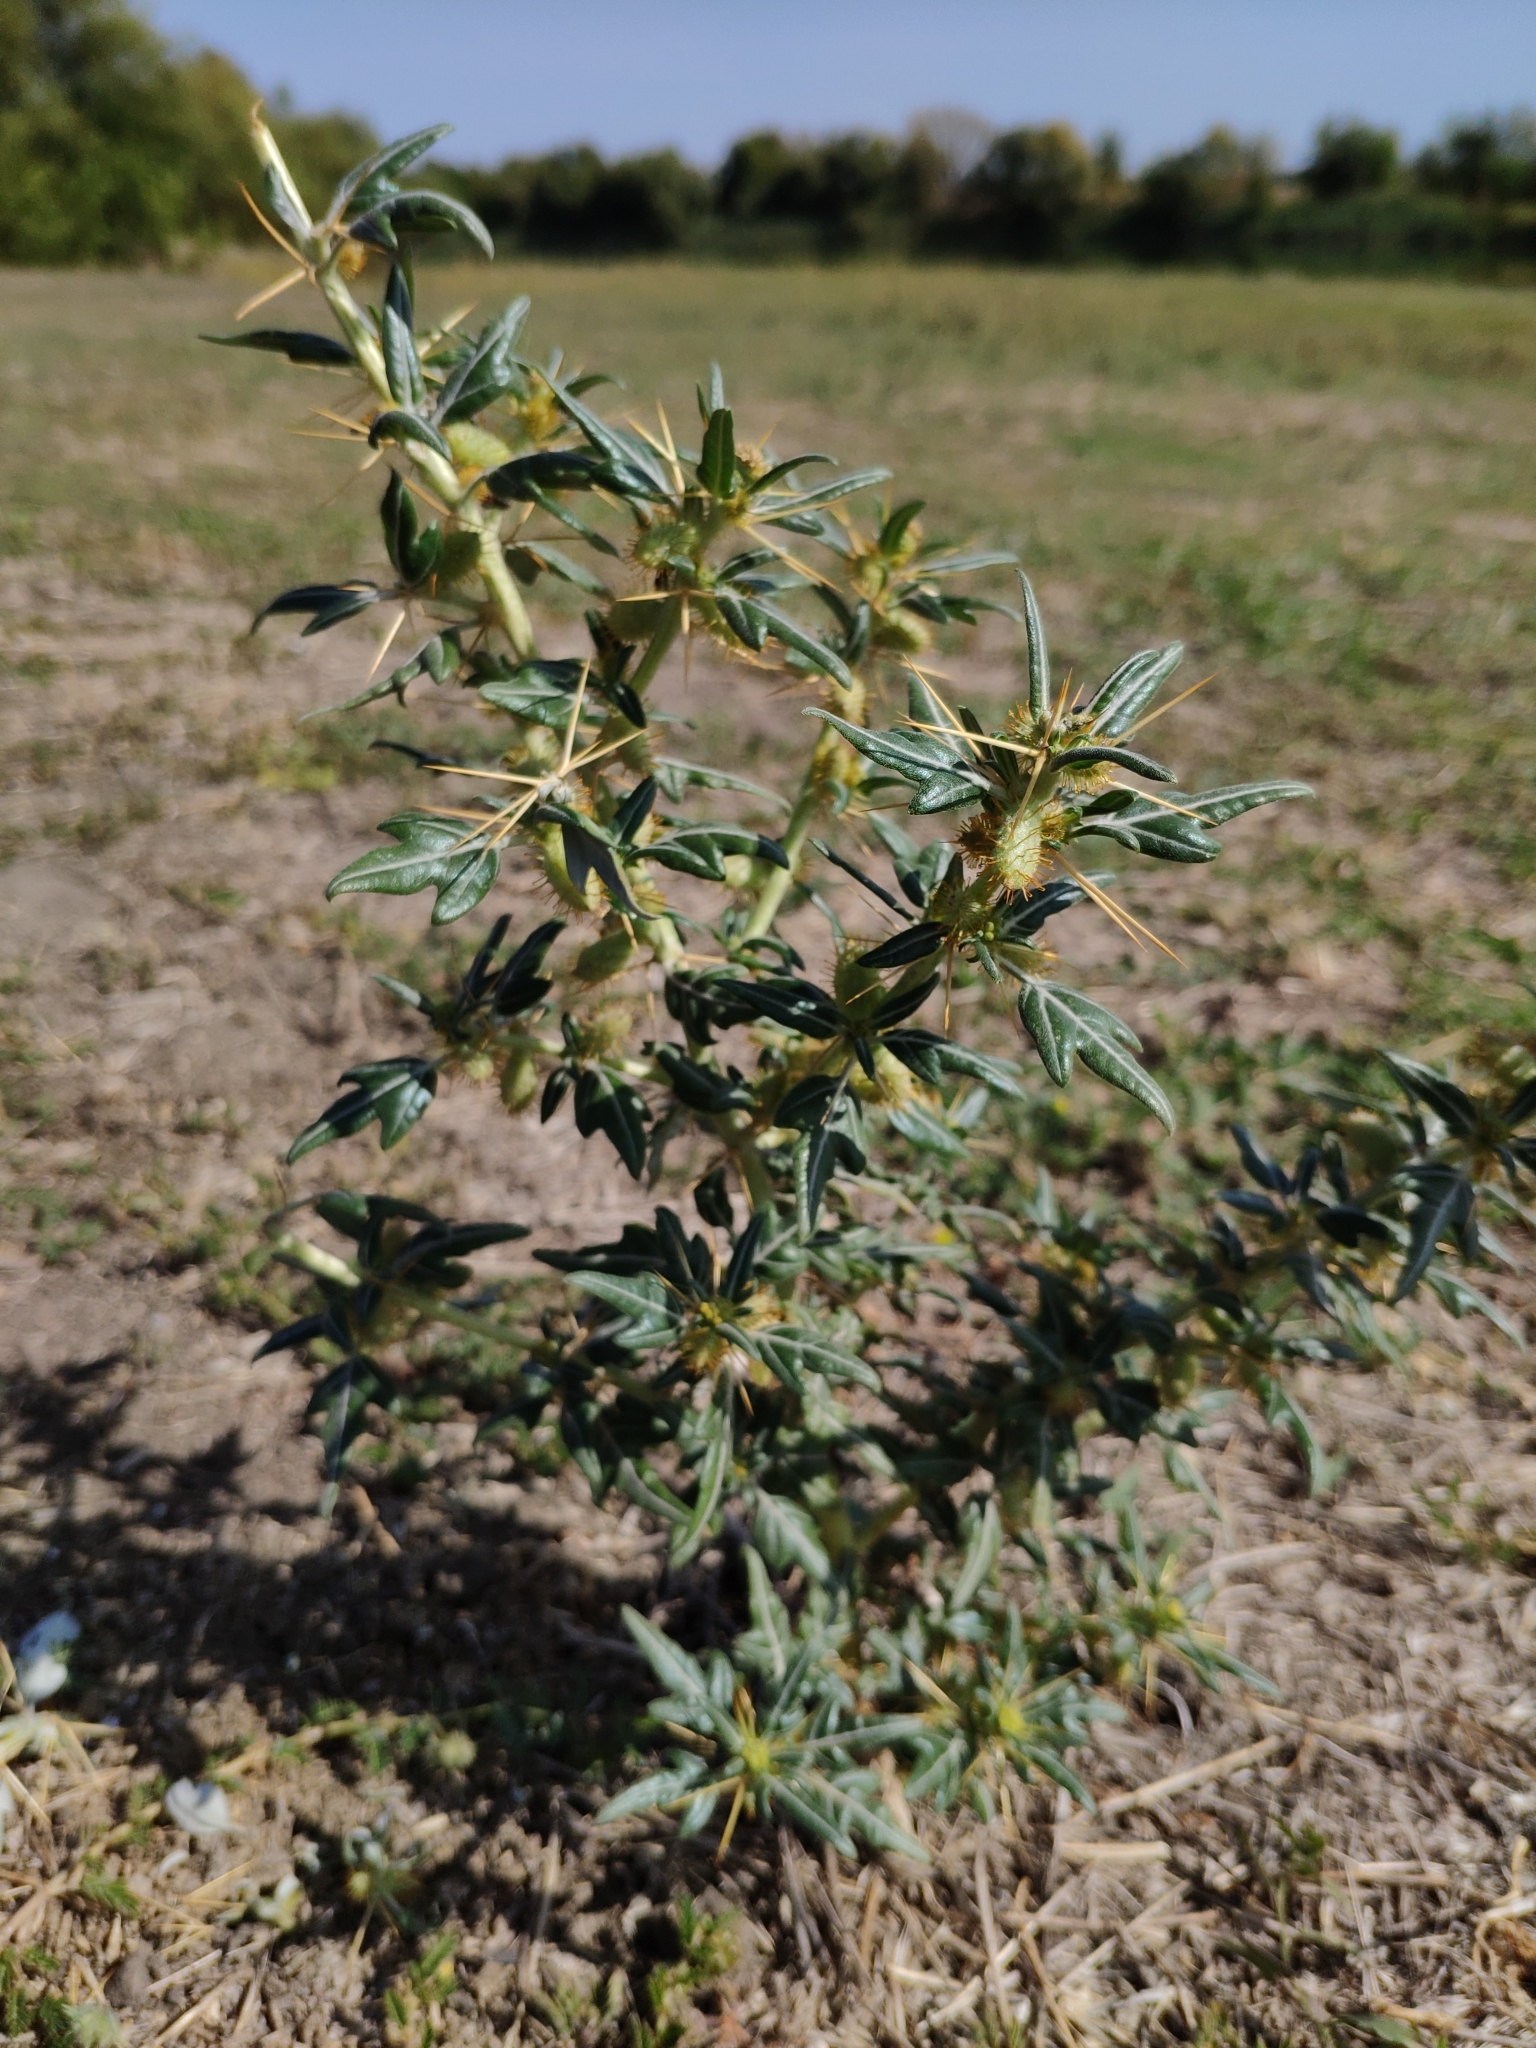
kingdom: Plantae
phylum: Tracheophyta
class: Magnoliopsida
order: Asterales
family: Asteraceae
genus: Xanthium
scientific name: Xanthium spinosum
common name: Spiny cocklebur
